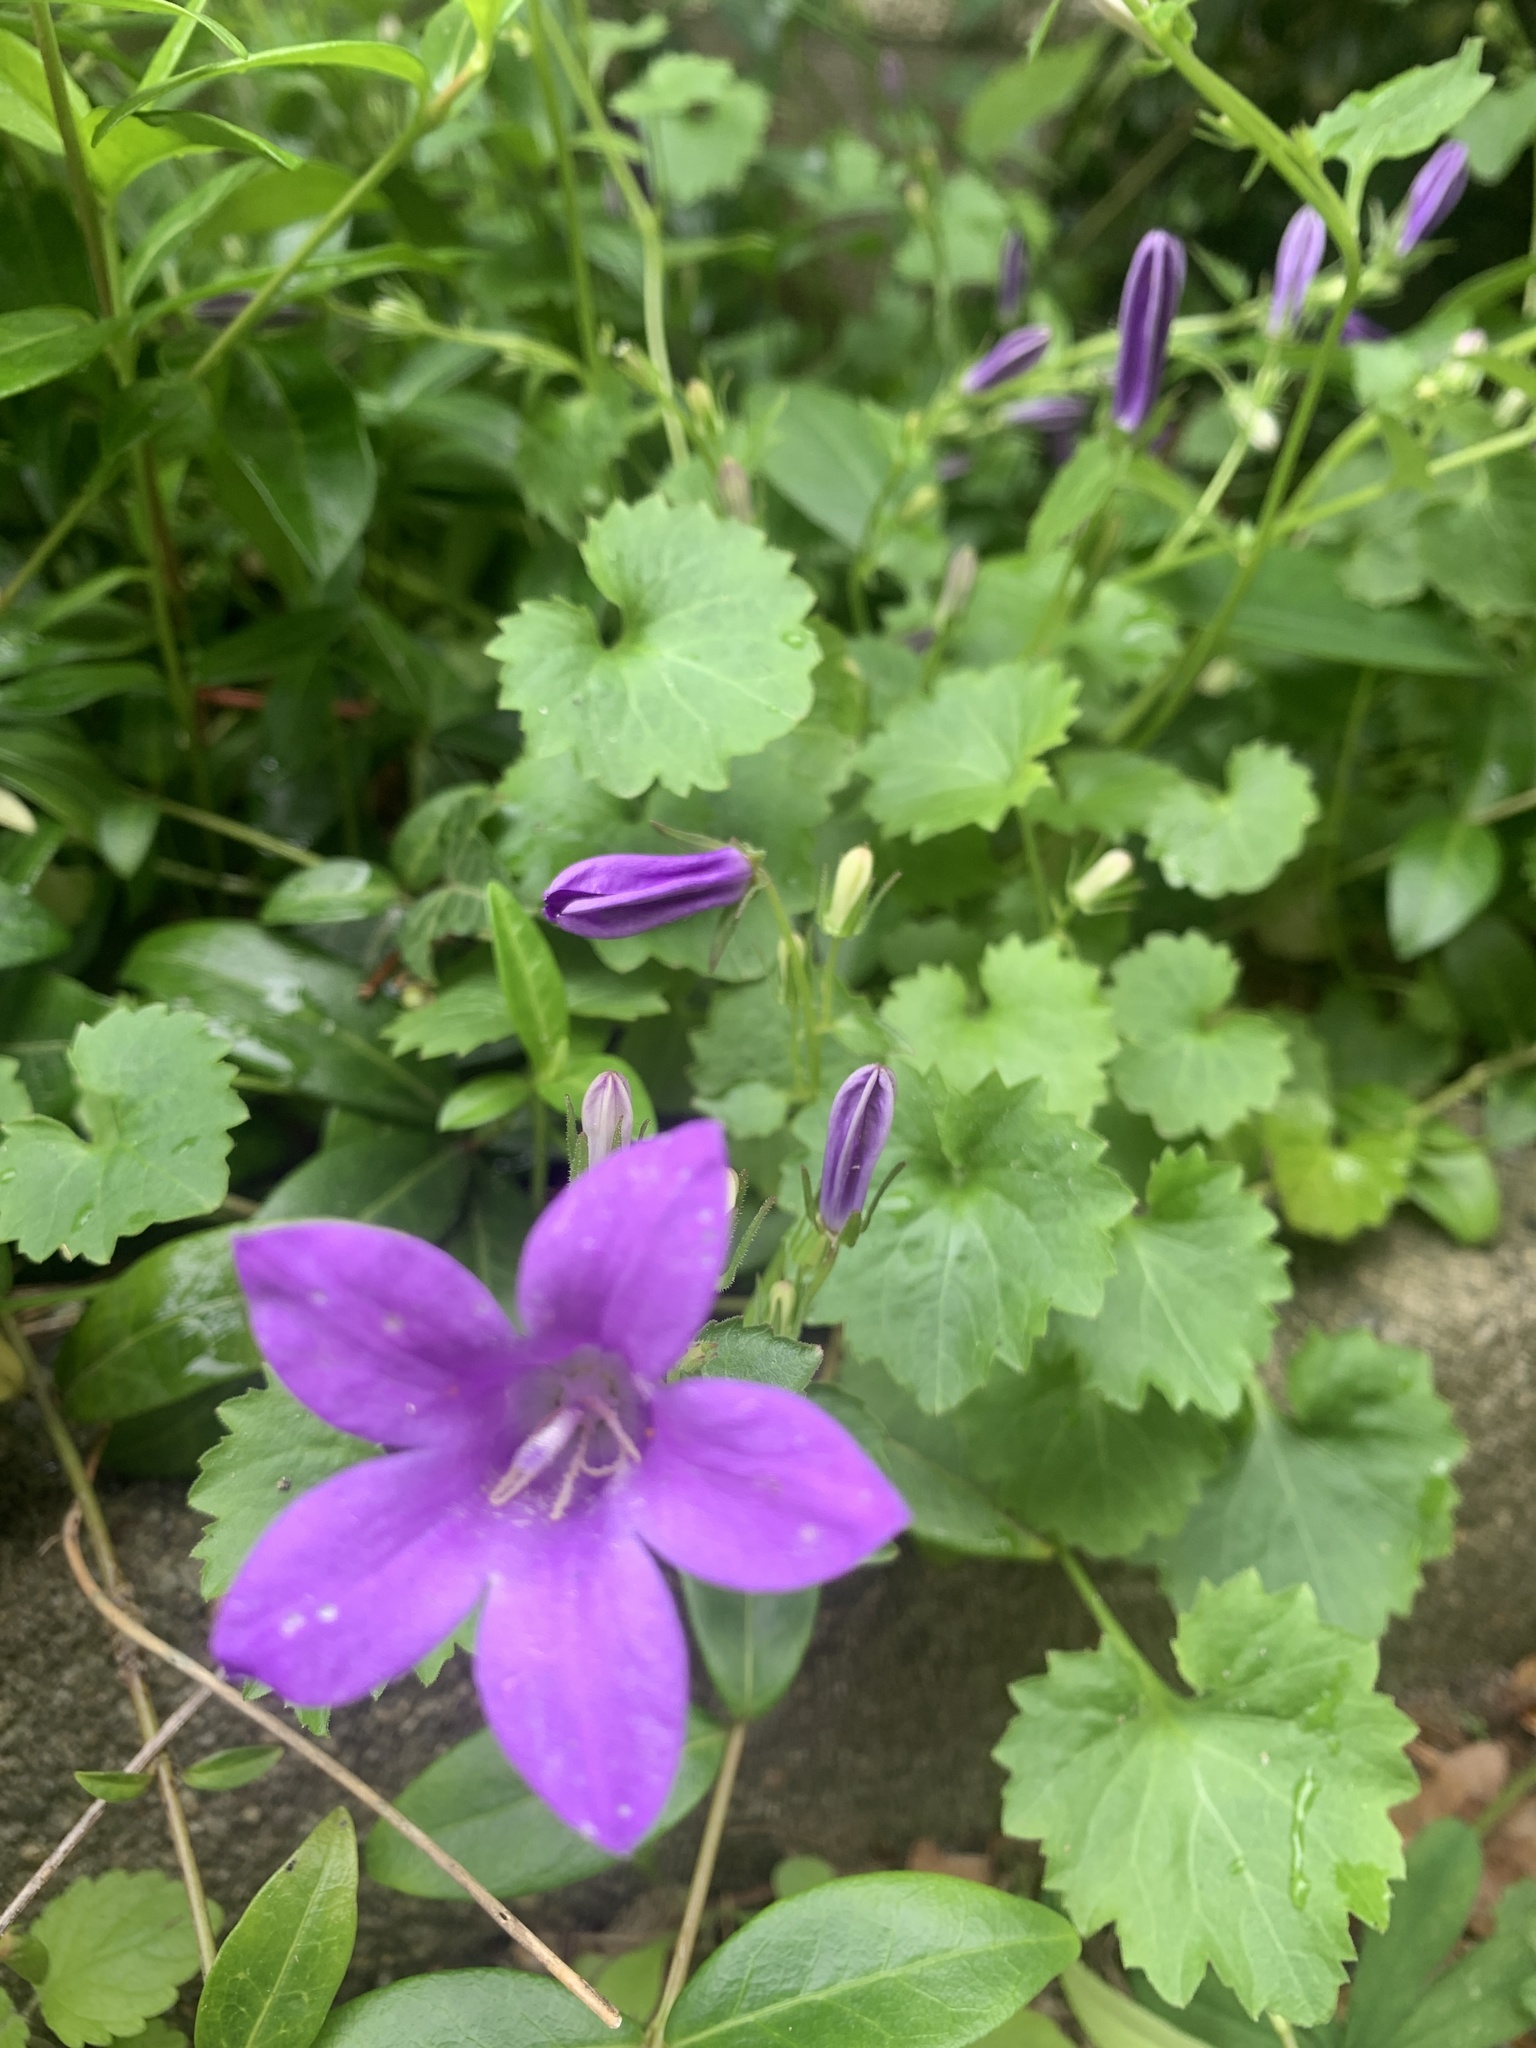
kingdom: Plantae
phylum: Tracheophyta
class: Magnoliopsida
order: Asterales
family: Campanulaceae
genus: Campanula
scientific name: Campanula poscharskyana
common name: Trailing bellflower
